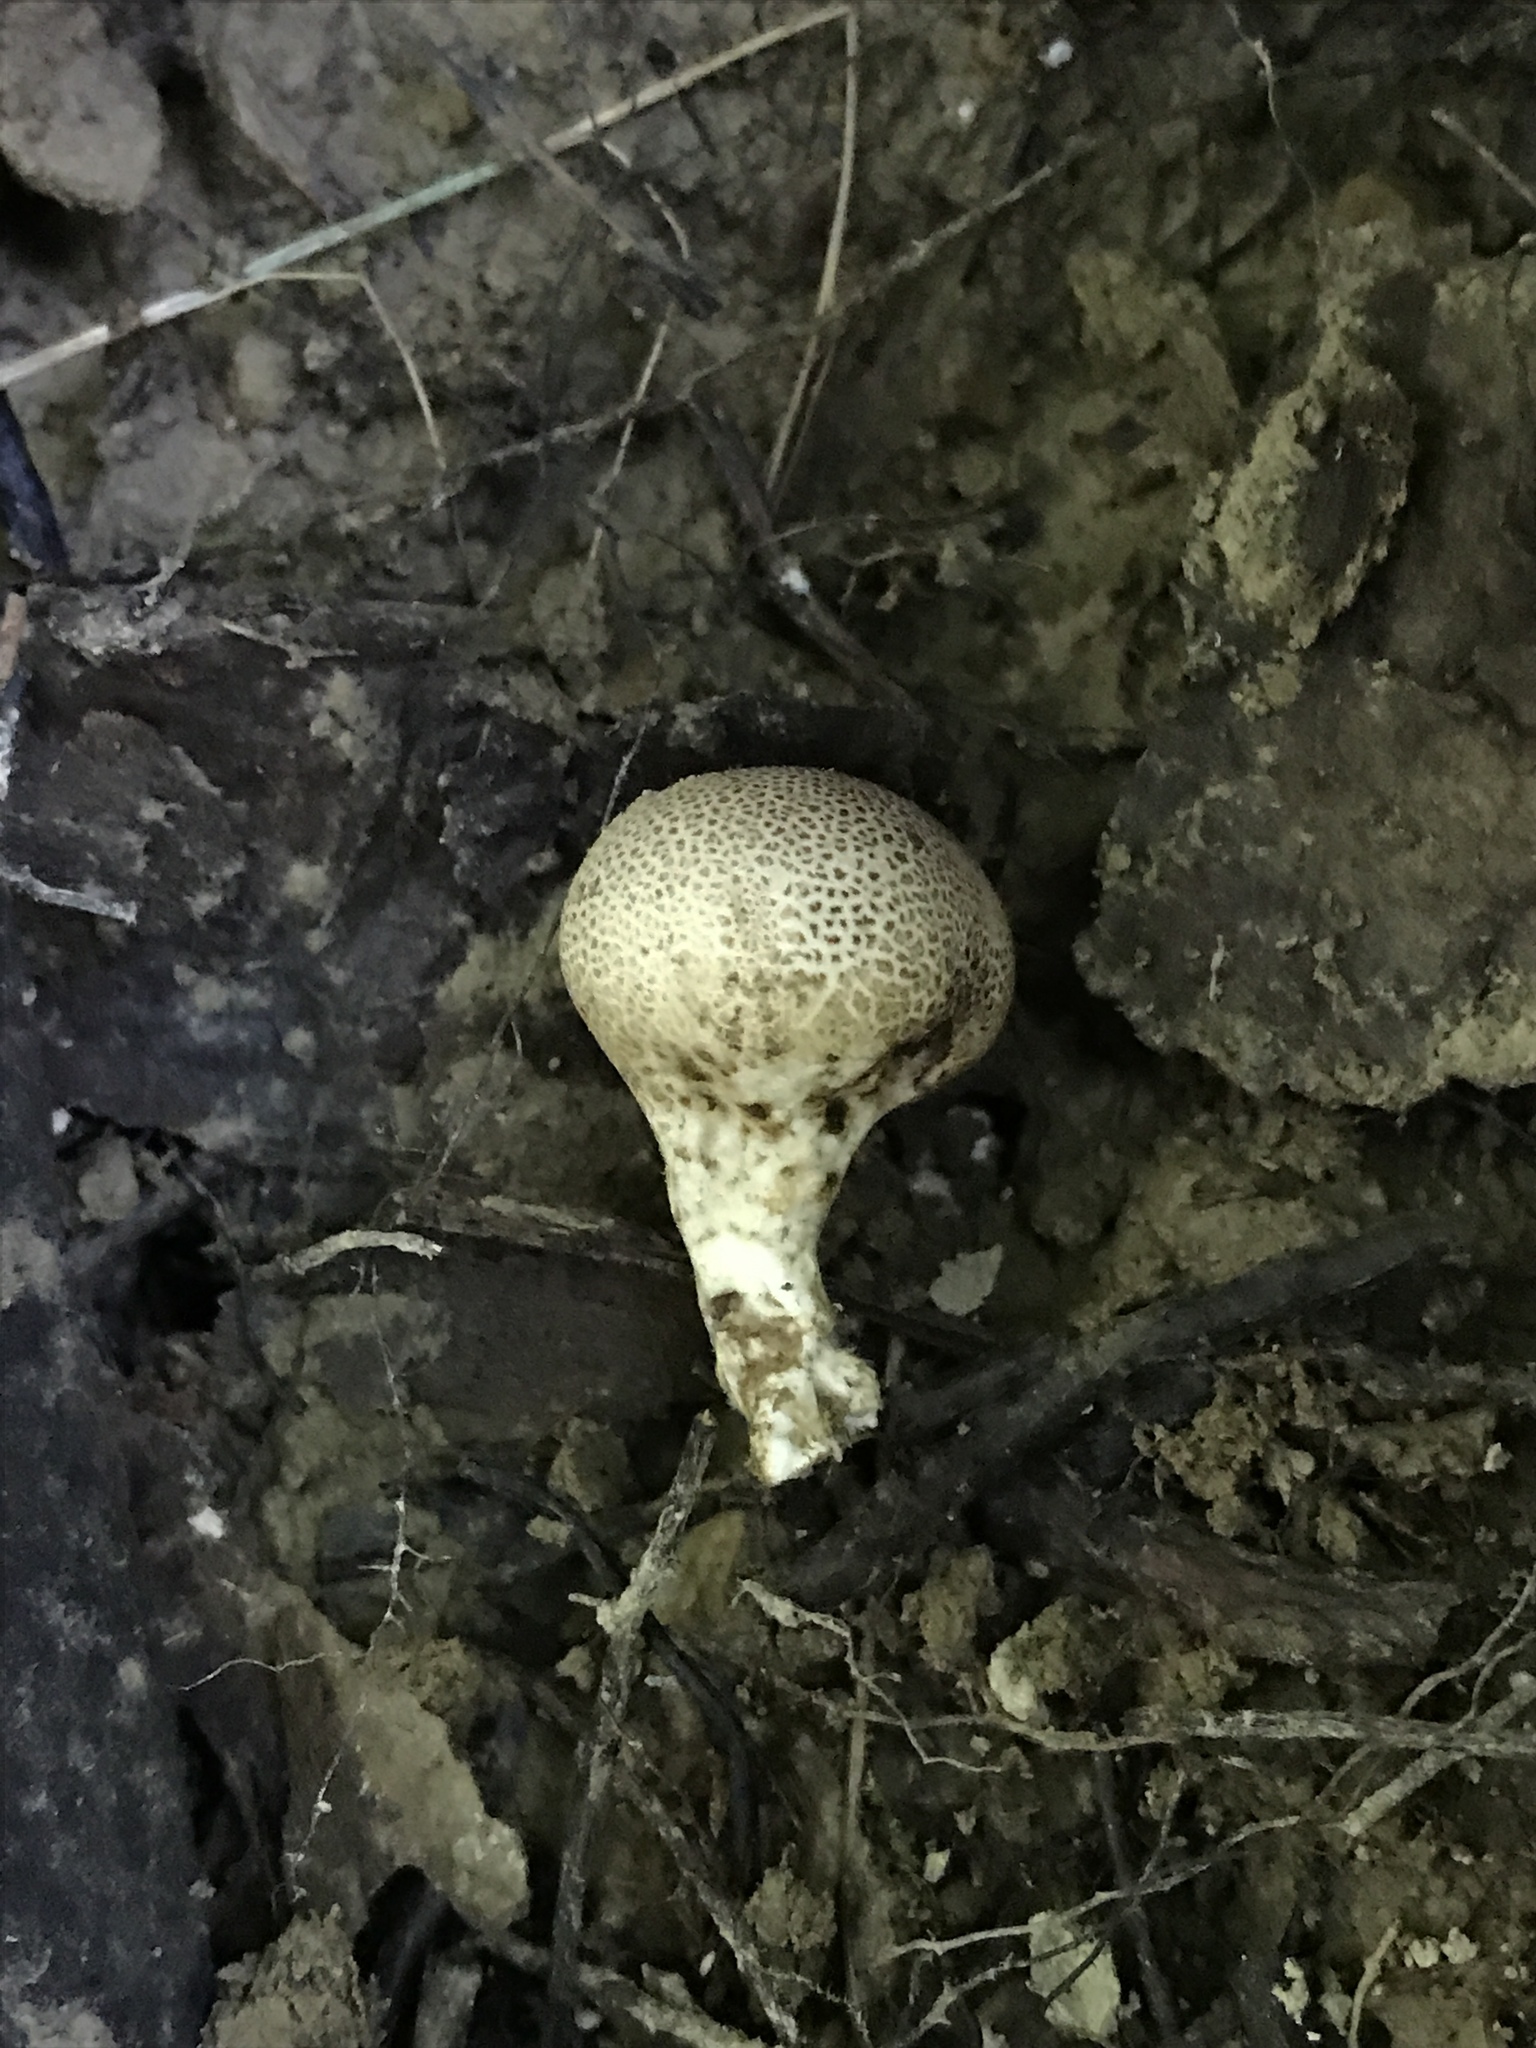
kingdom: Fungi
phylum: Basidiomycota
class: Agaricomycetes
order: Boletales
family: Sclerodermataceae
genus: Scleroderma
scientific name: Scleroderma areolatum
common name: Leopard earthball
